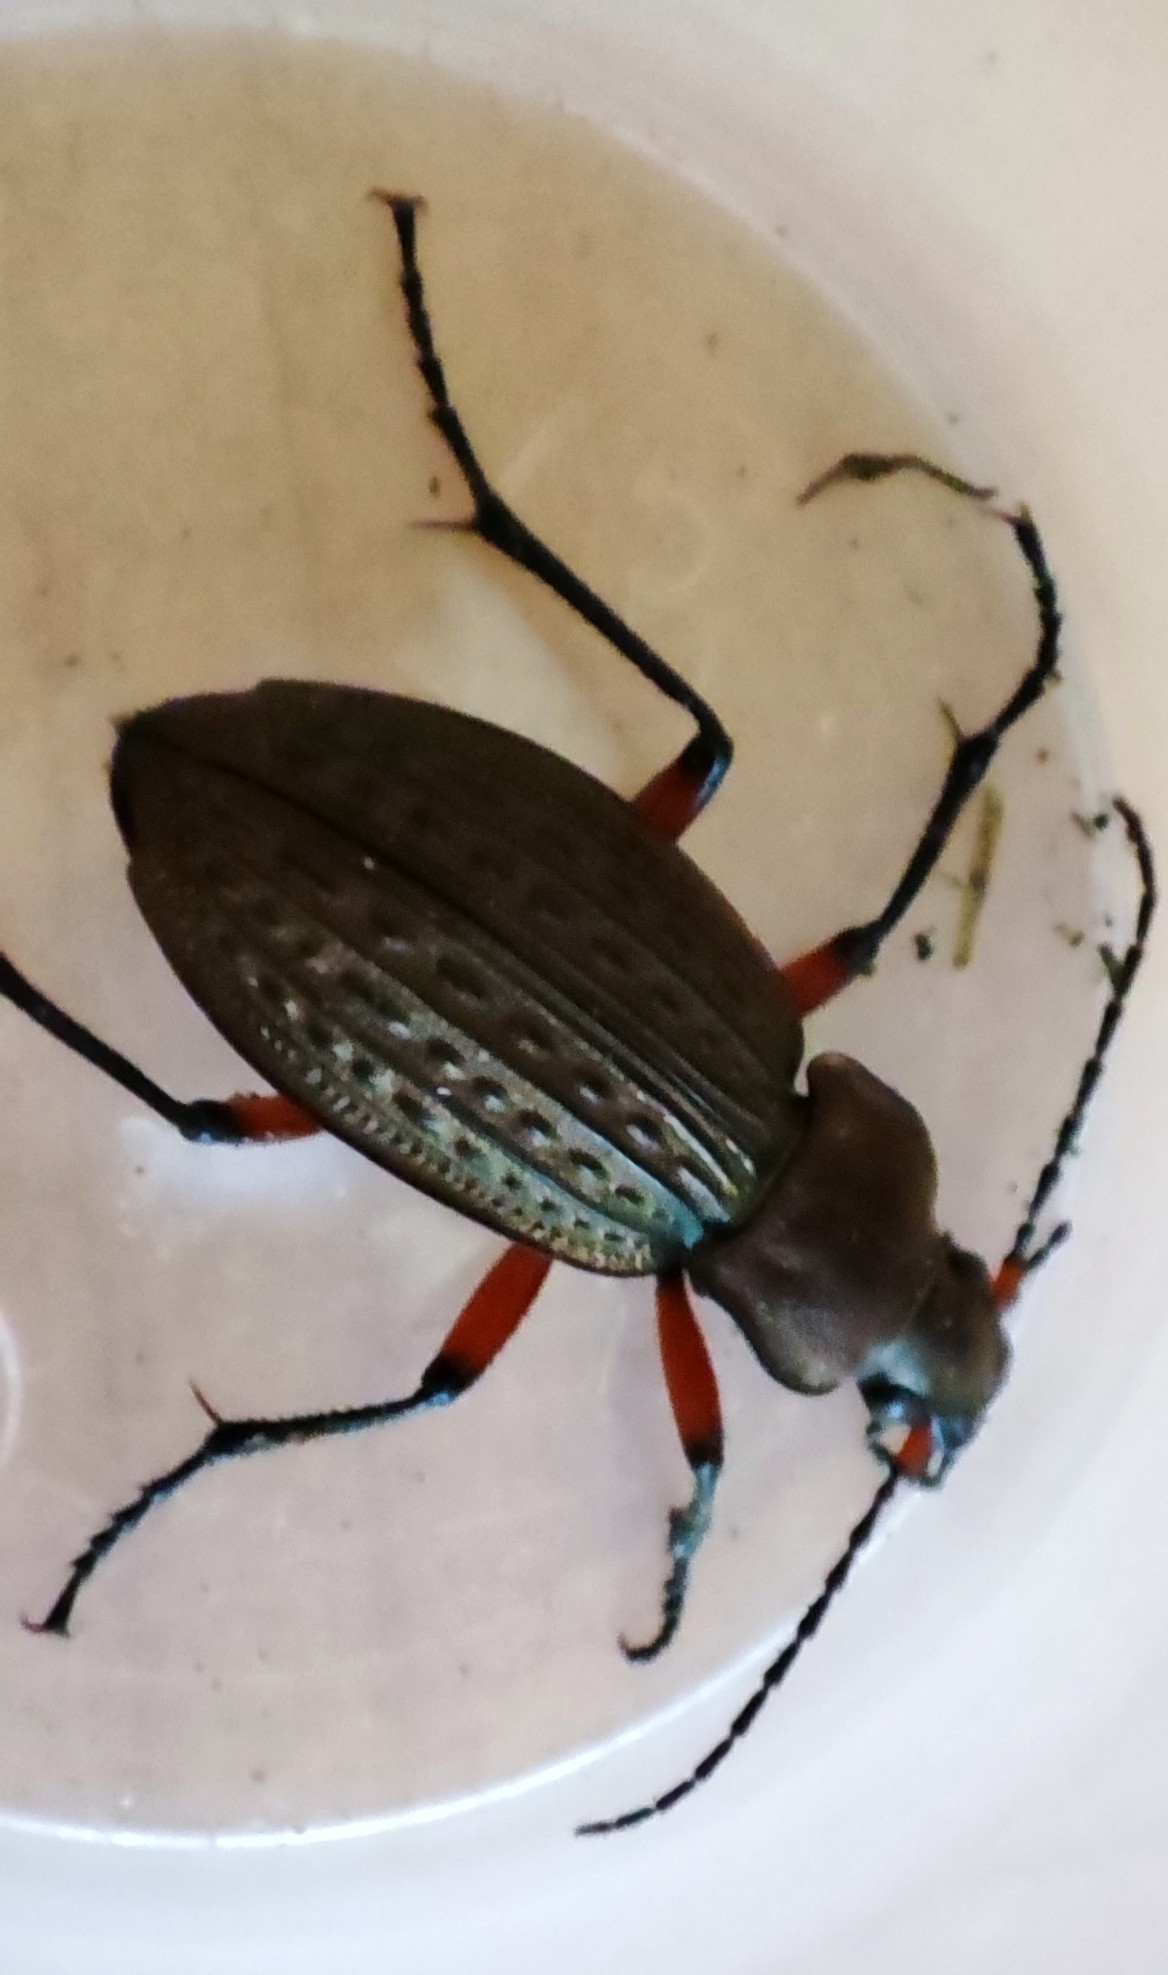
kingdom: Animalia
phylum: Arthropoda
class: Insecta
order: Coleoptera
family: Carabidae
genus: Carabus
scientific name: Carabus cancellatus
